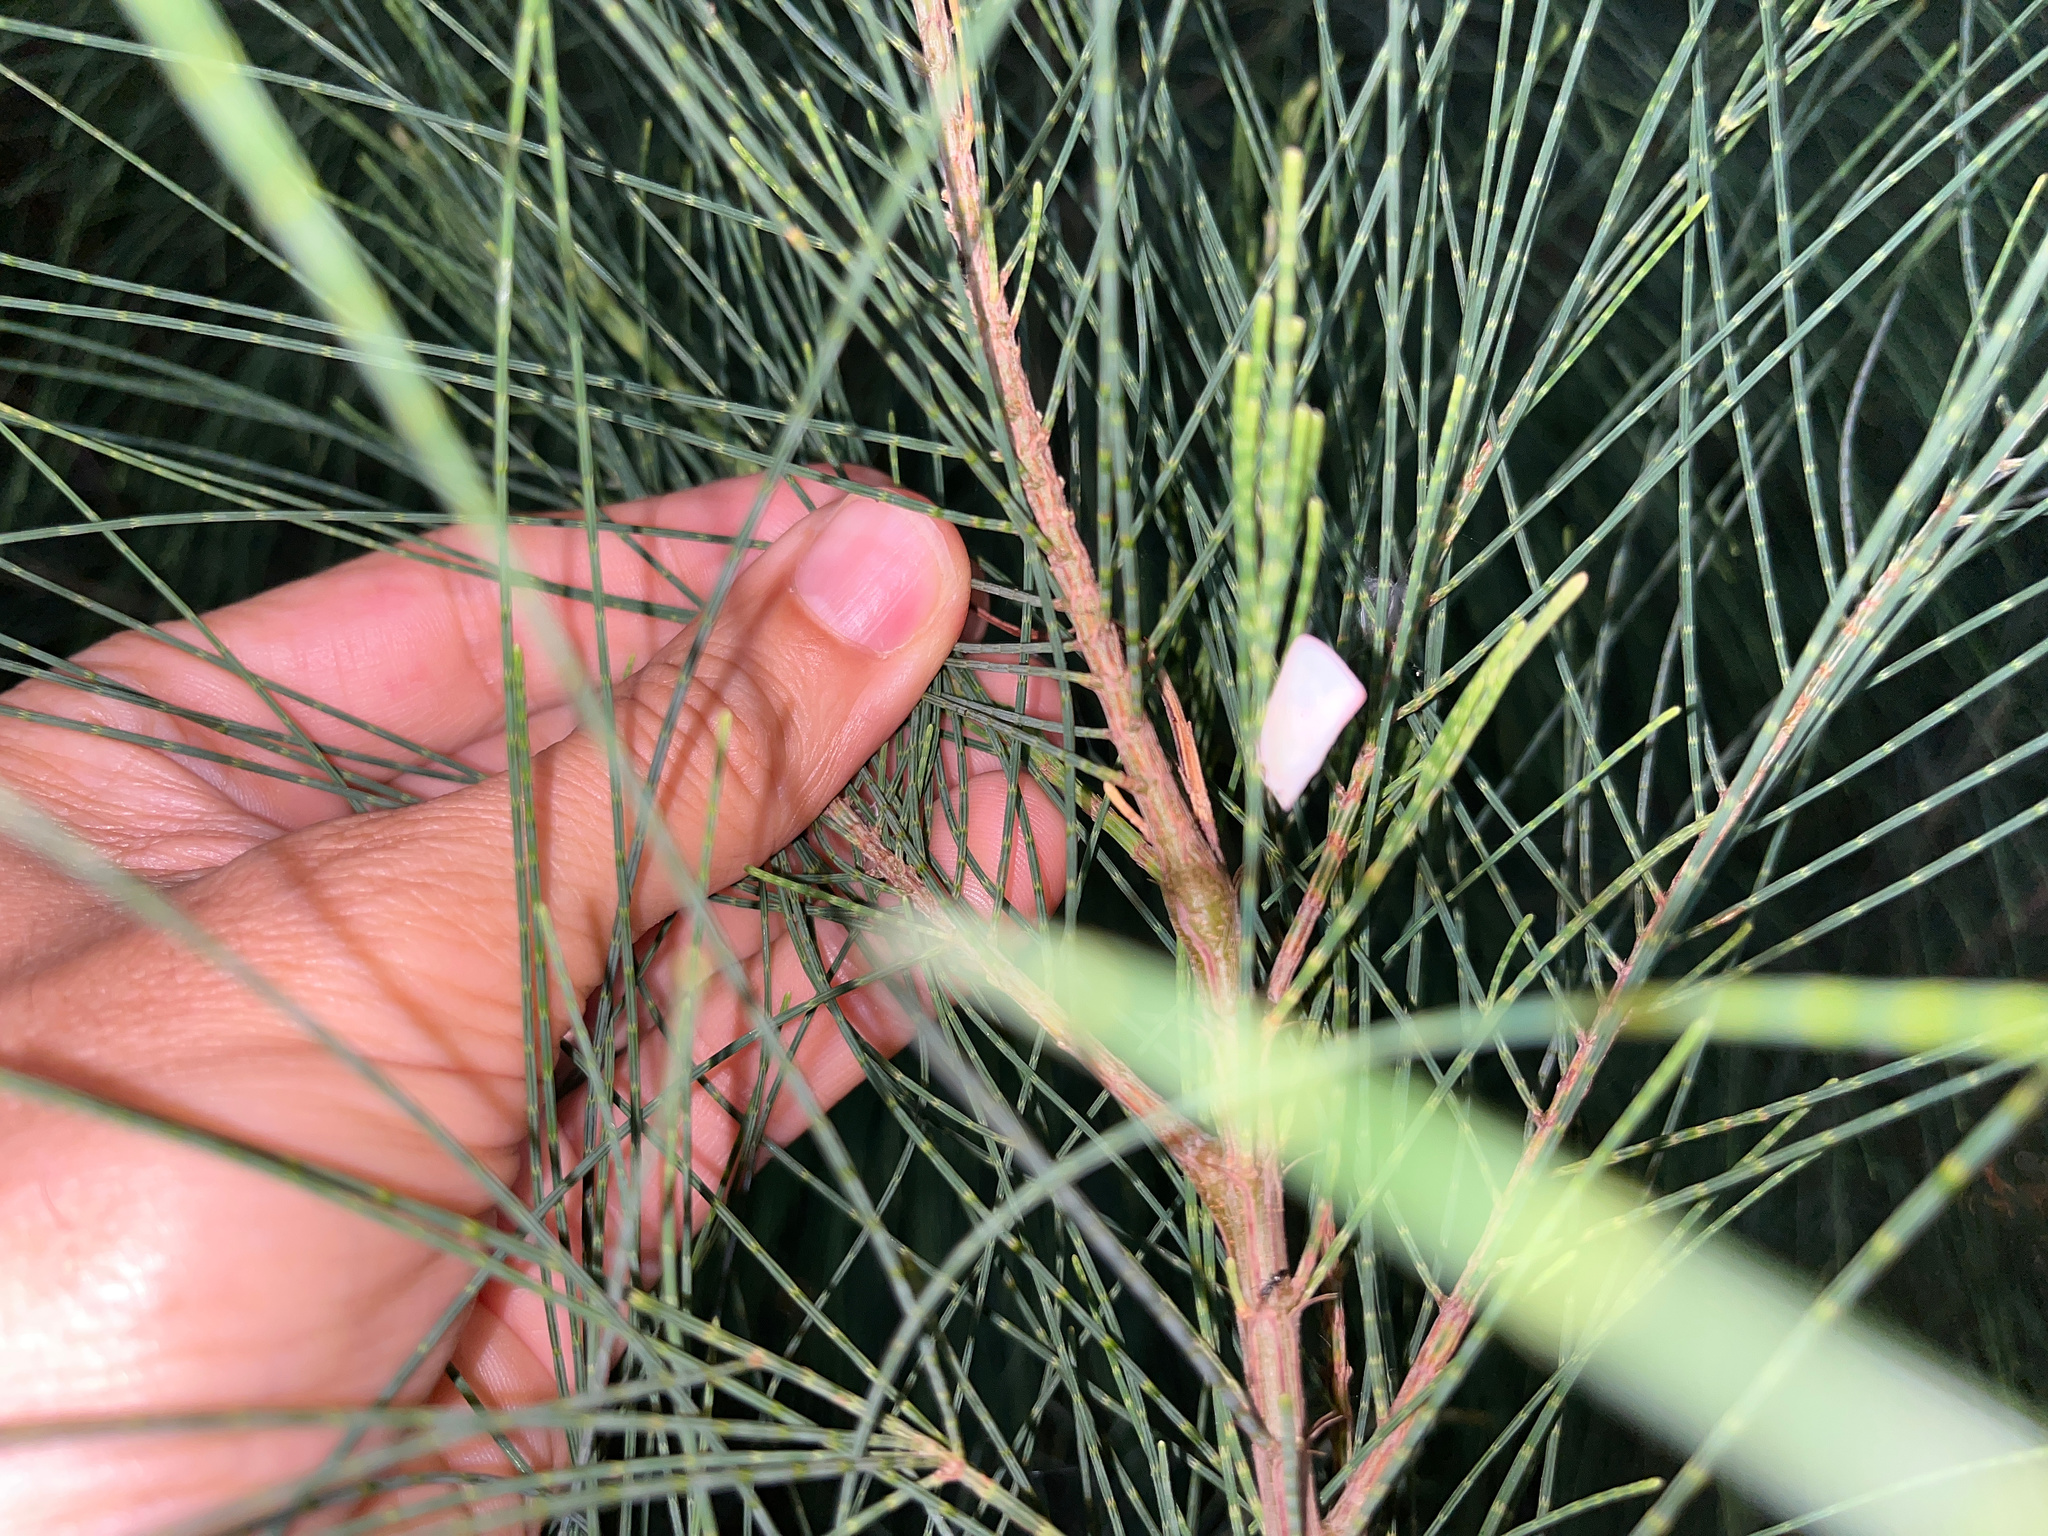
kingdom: Animalia
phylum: Arthropoda
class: Insecta
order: Hemiptera
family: Flatidae
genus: Colgar
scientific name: Colgar peracuta
